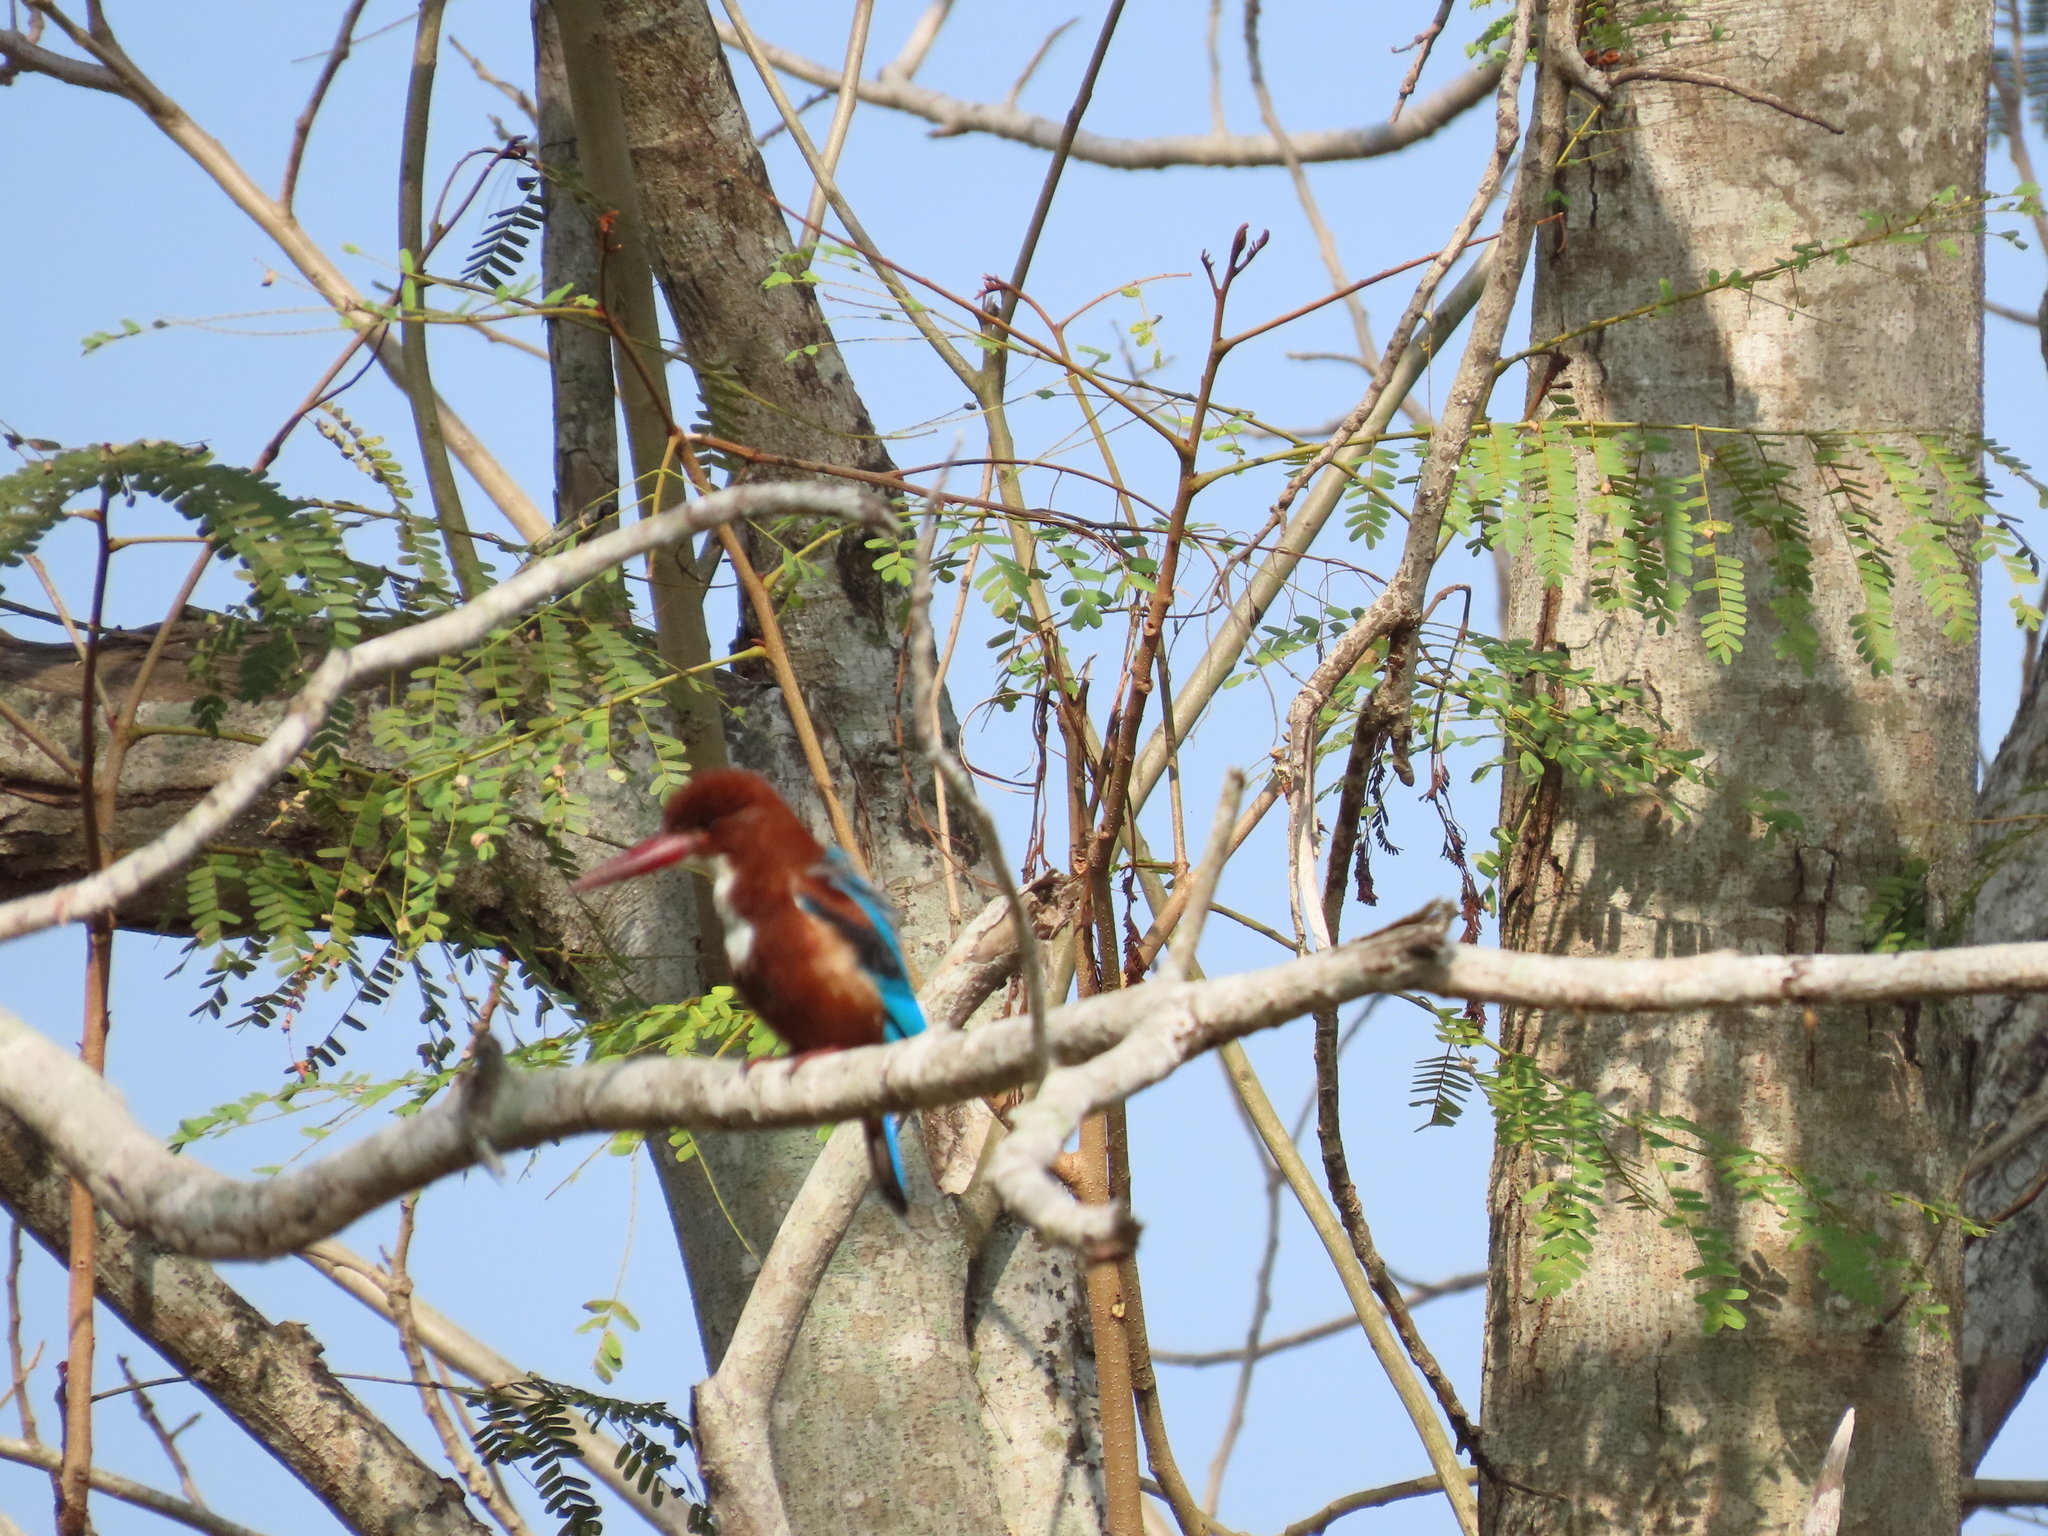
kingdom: Animalia
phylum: Chordata
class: Aves
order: Coraciiformes
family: Alcedinidae
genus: Halcyon
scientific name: Halcyon smyrnensis
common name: White-throated kingfisher
